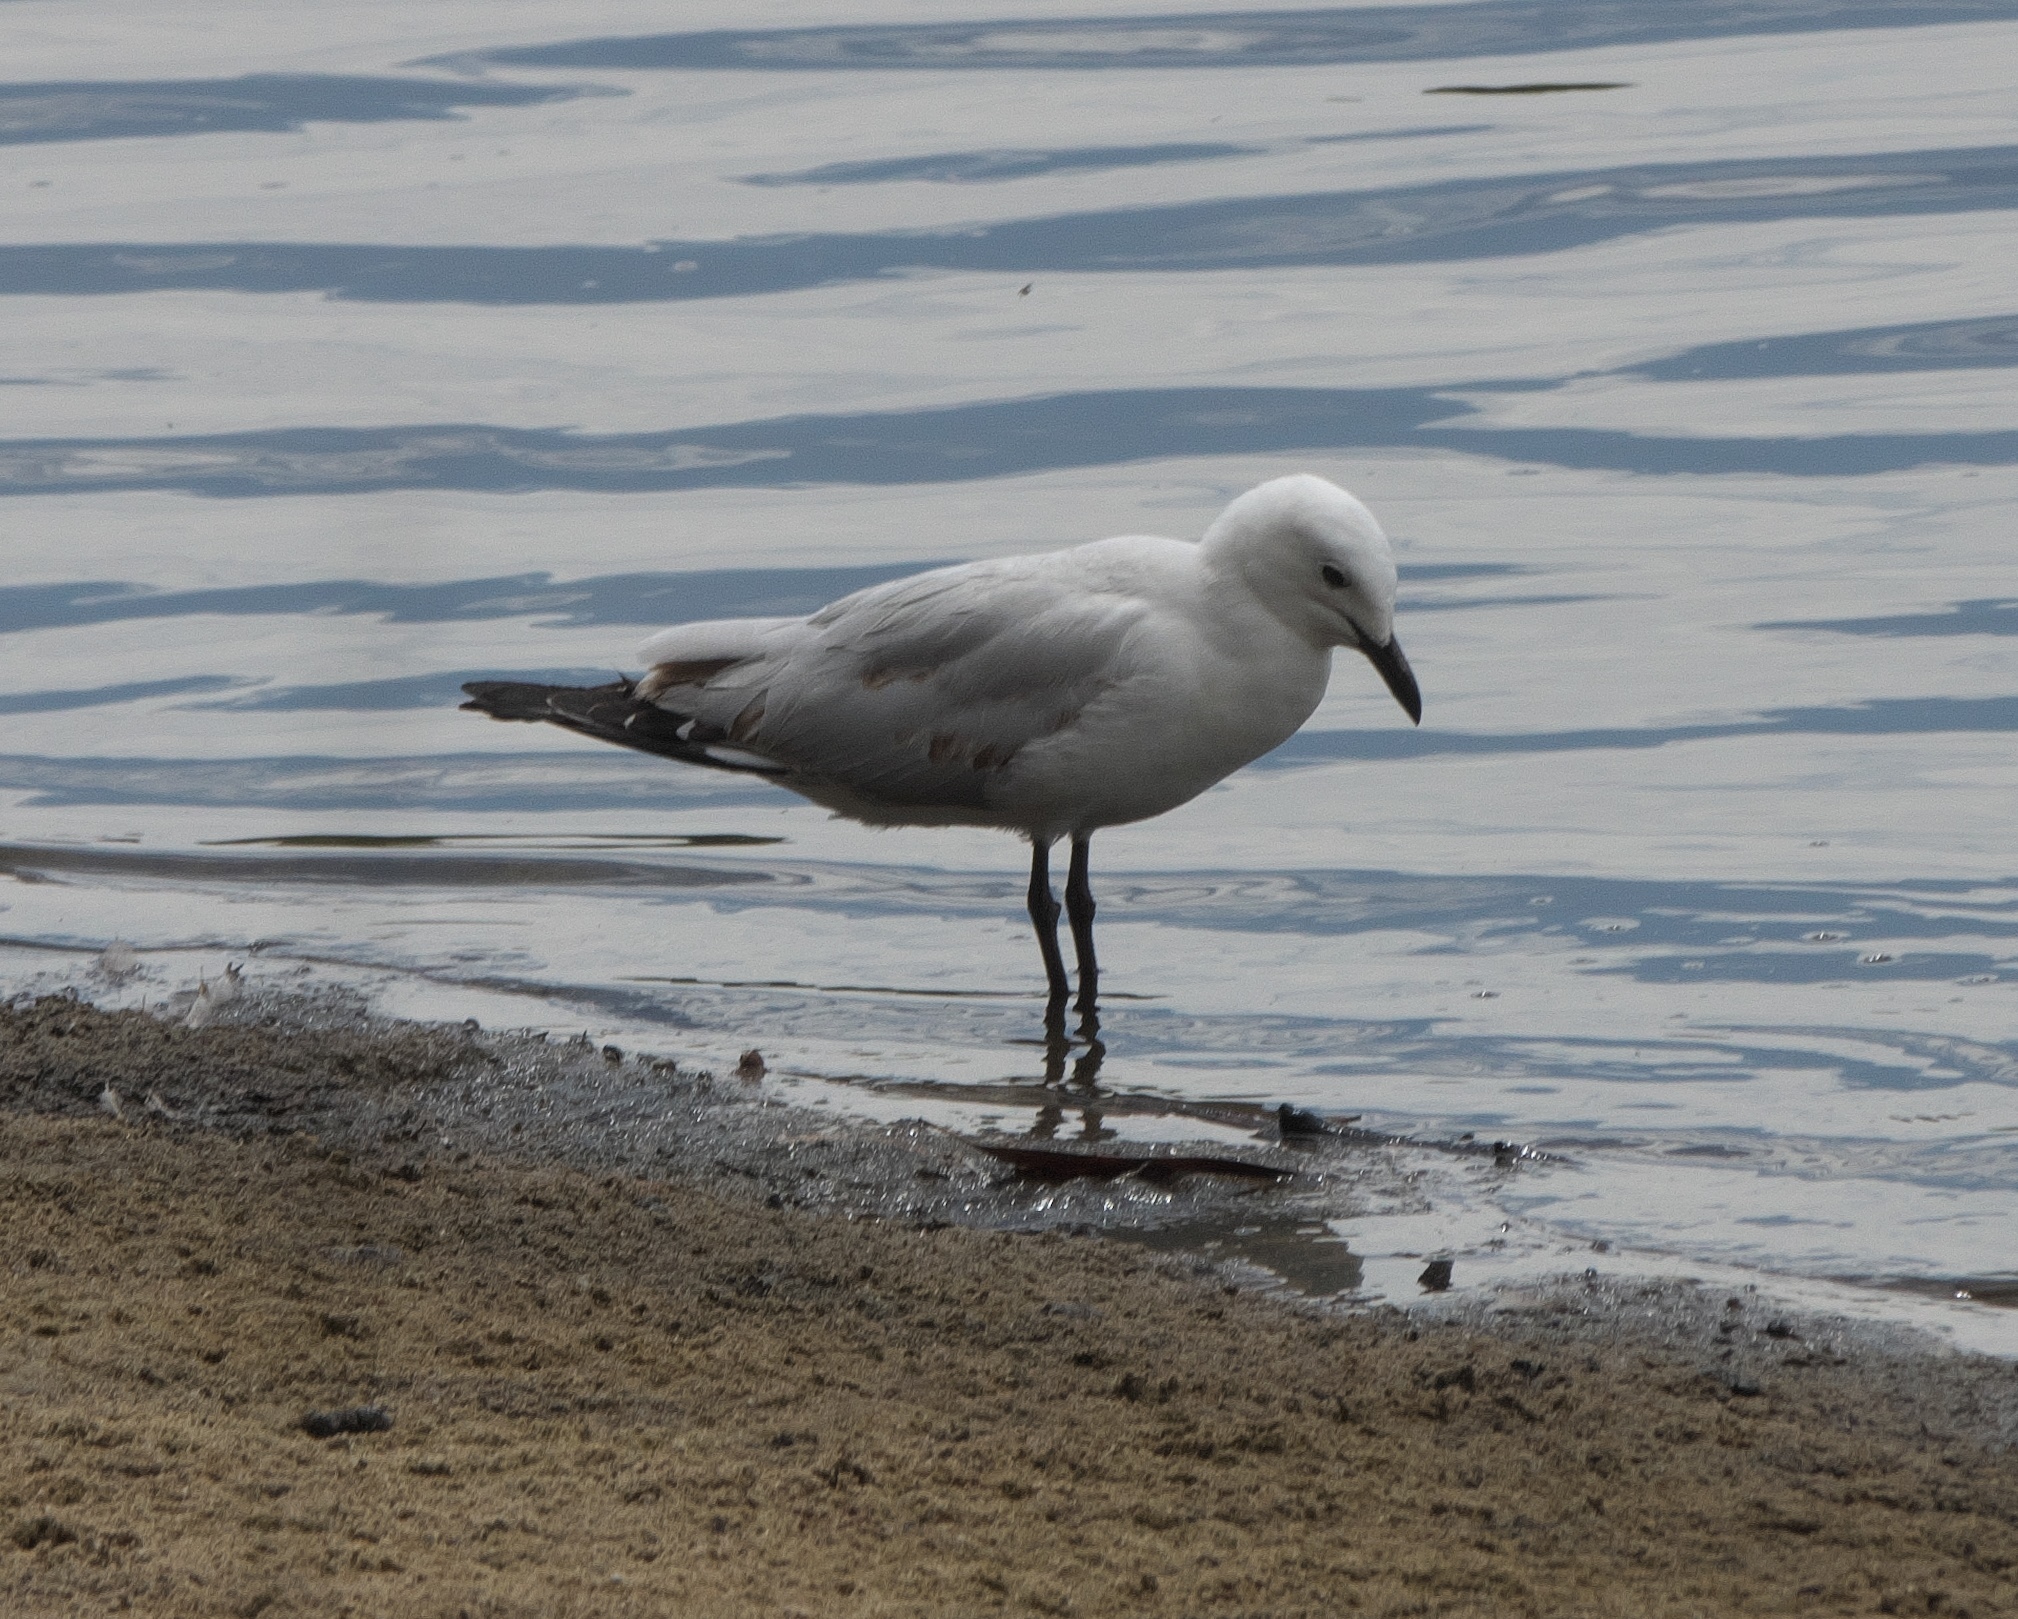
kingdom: Animalia
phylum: Chordata
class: Aves
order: Charadriiformes
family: Laridae
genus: Chroicocephalus
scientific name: Chroicocephalus novaehollandiae
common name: Silver gull
